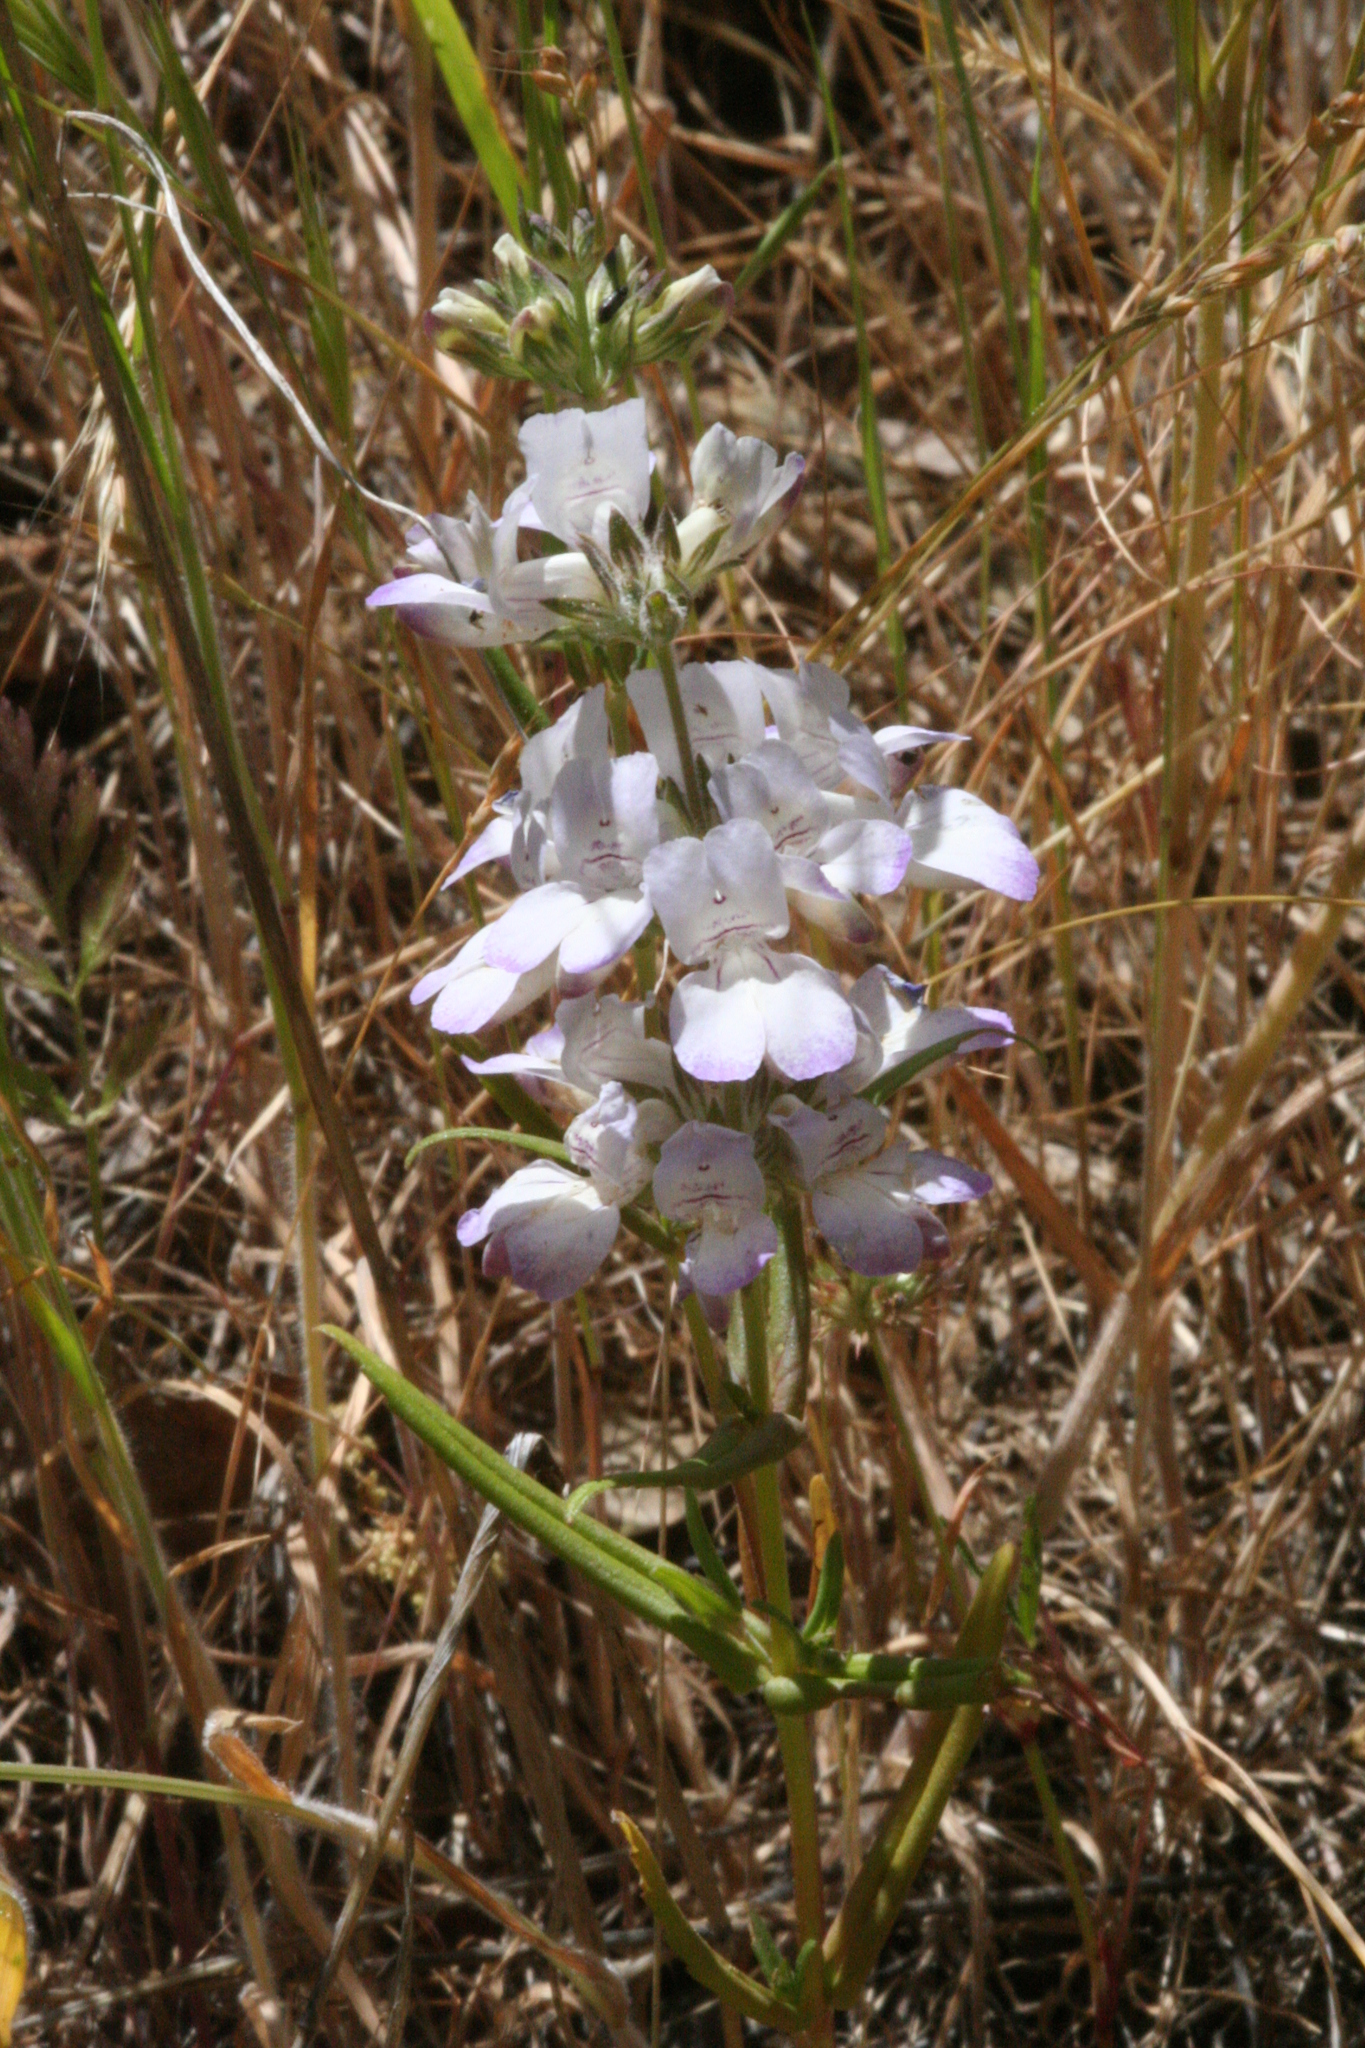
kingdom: Plantae
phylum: Tracheophyta
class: Magnoliopsida
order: Lamiales
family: Plantaginaceae
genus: Collinsia
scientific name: Collinsia heterophylla
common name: Chinese-houses
